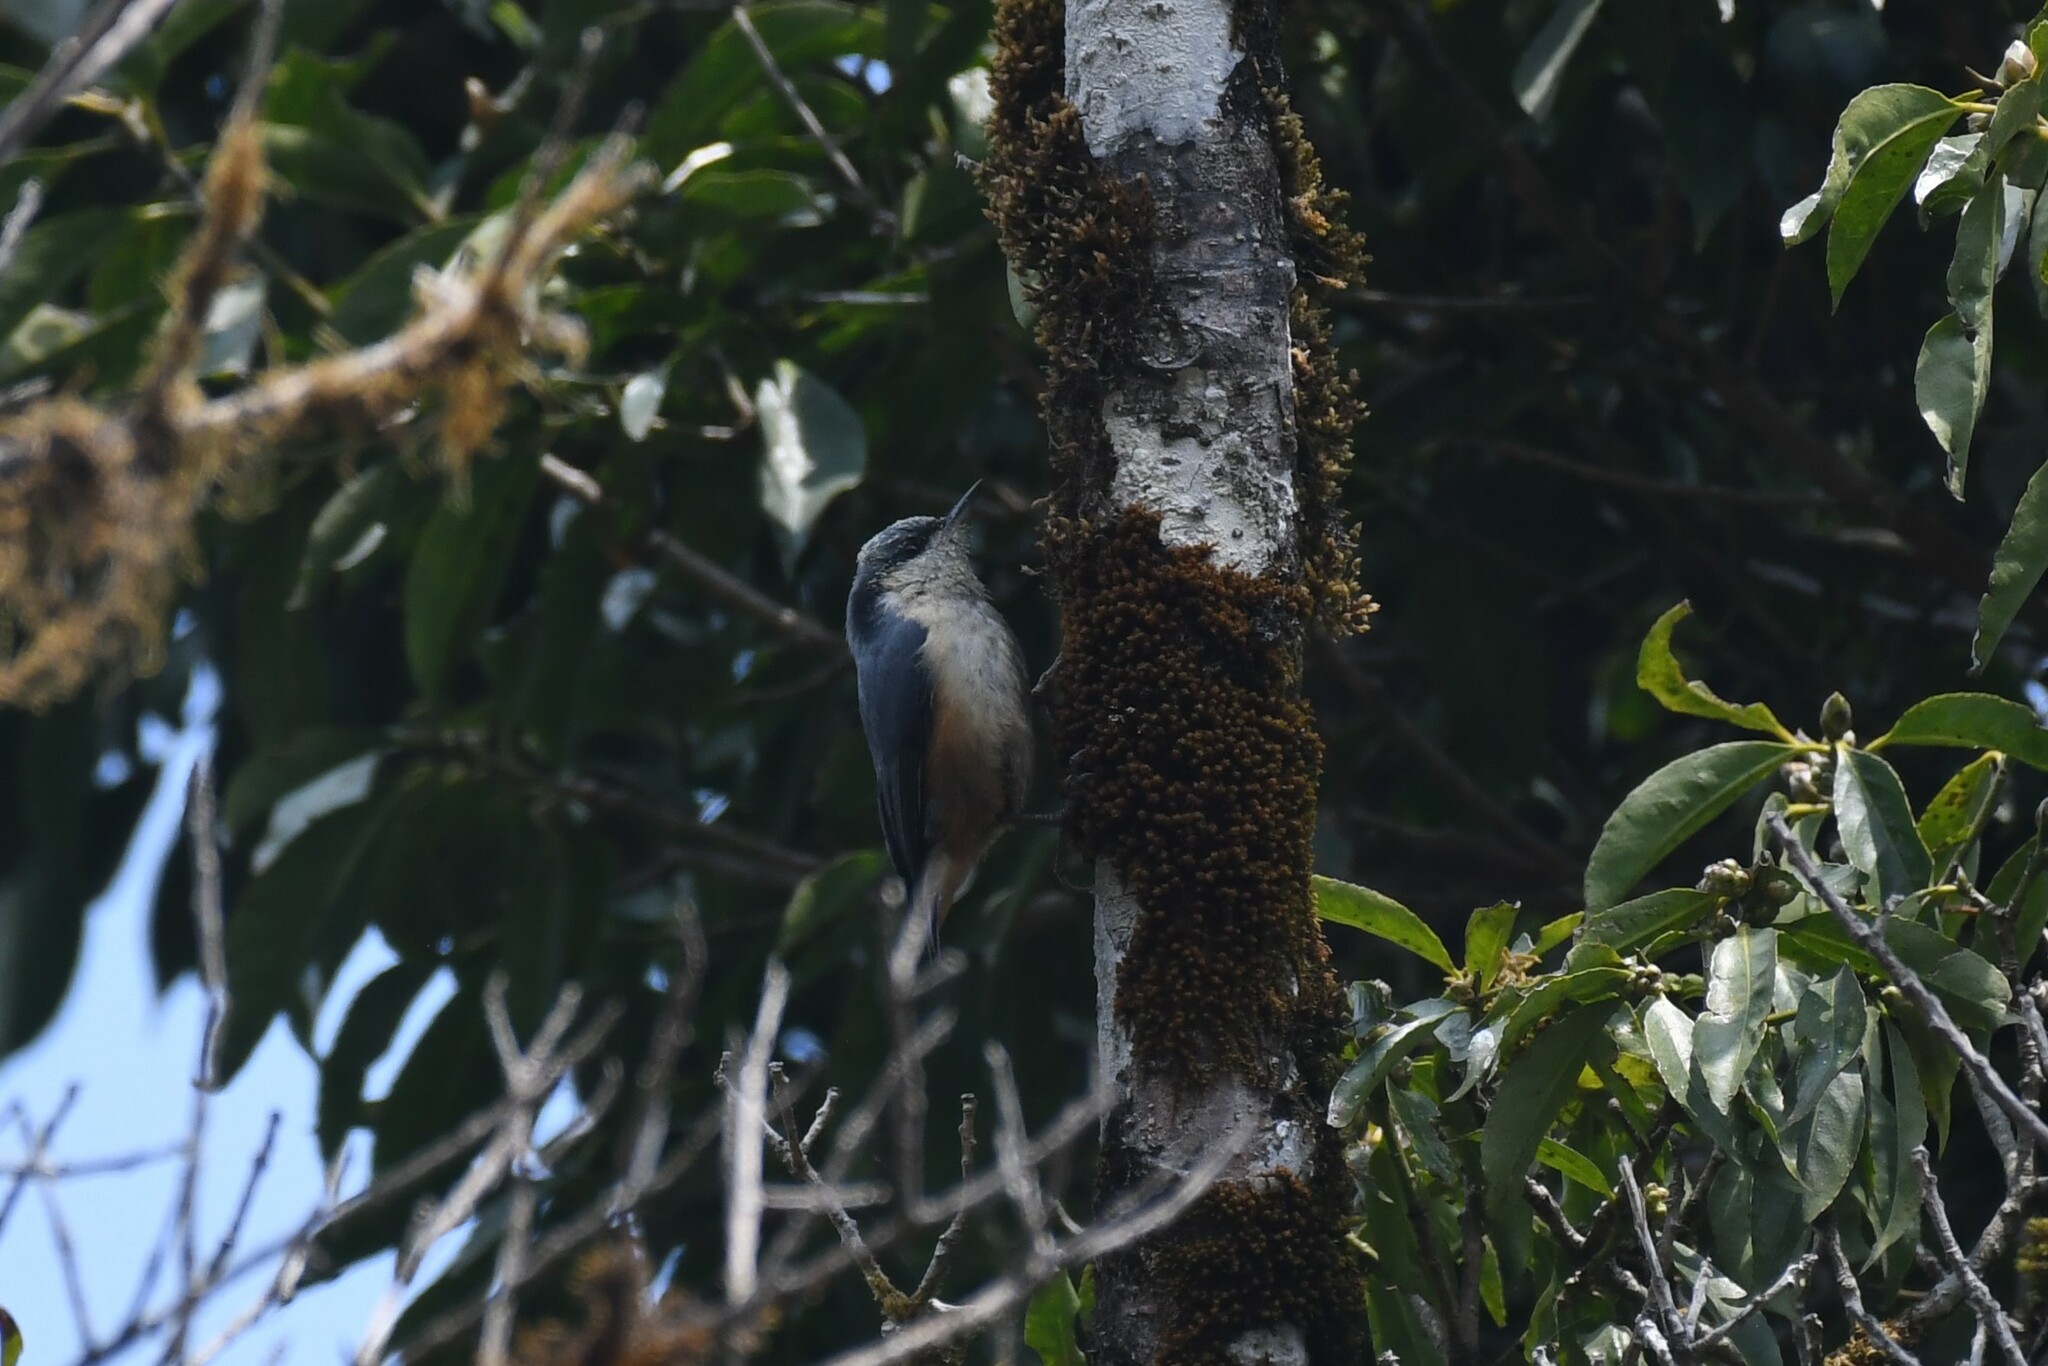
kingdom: Animalia
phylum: Chordata
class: Aves
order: Passeriformes
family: Sittidae
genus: Sitta
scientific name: Sitta himalayensis
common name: White-tailed nuthatch
